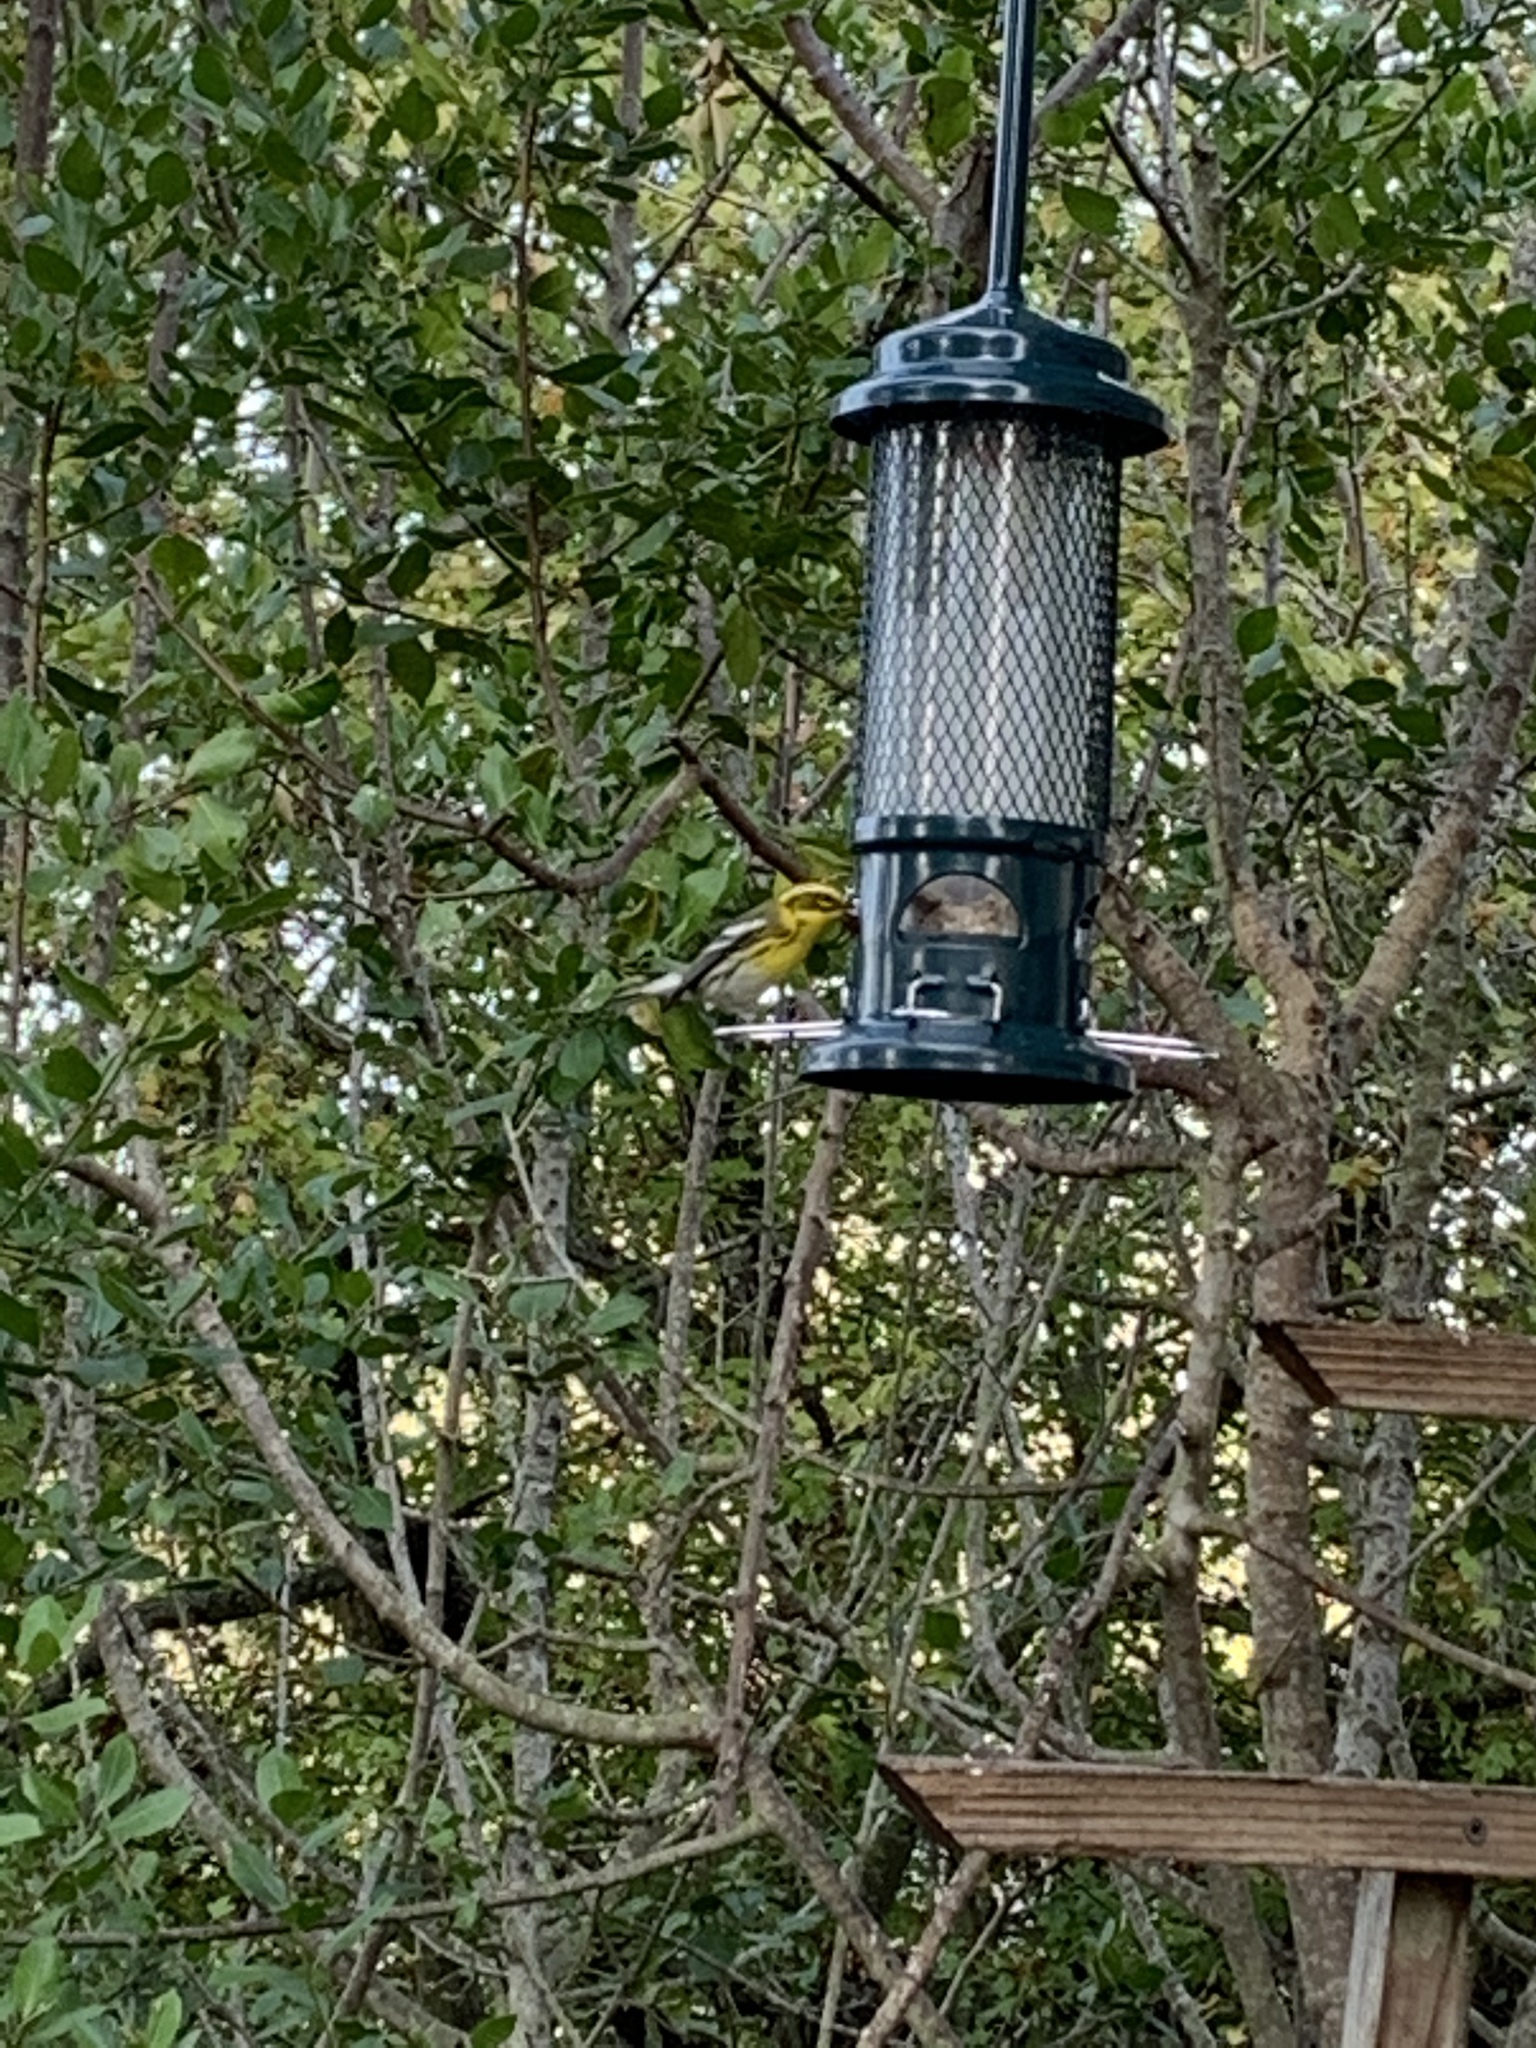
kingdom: Animalia
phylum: Chordata
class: Aves
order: Passeriformes
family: Parulidae
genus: Setophaga
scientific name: Setophaga townsendi
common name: Townsend's warbler
